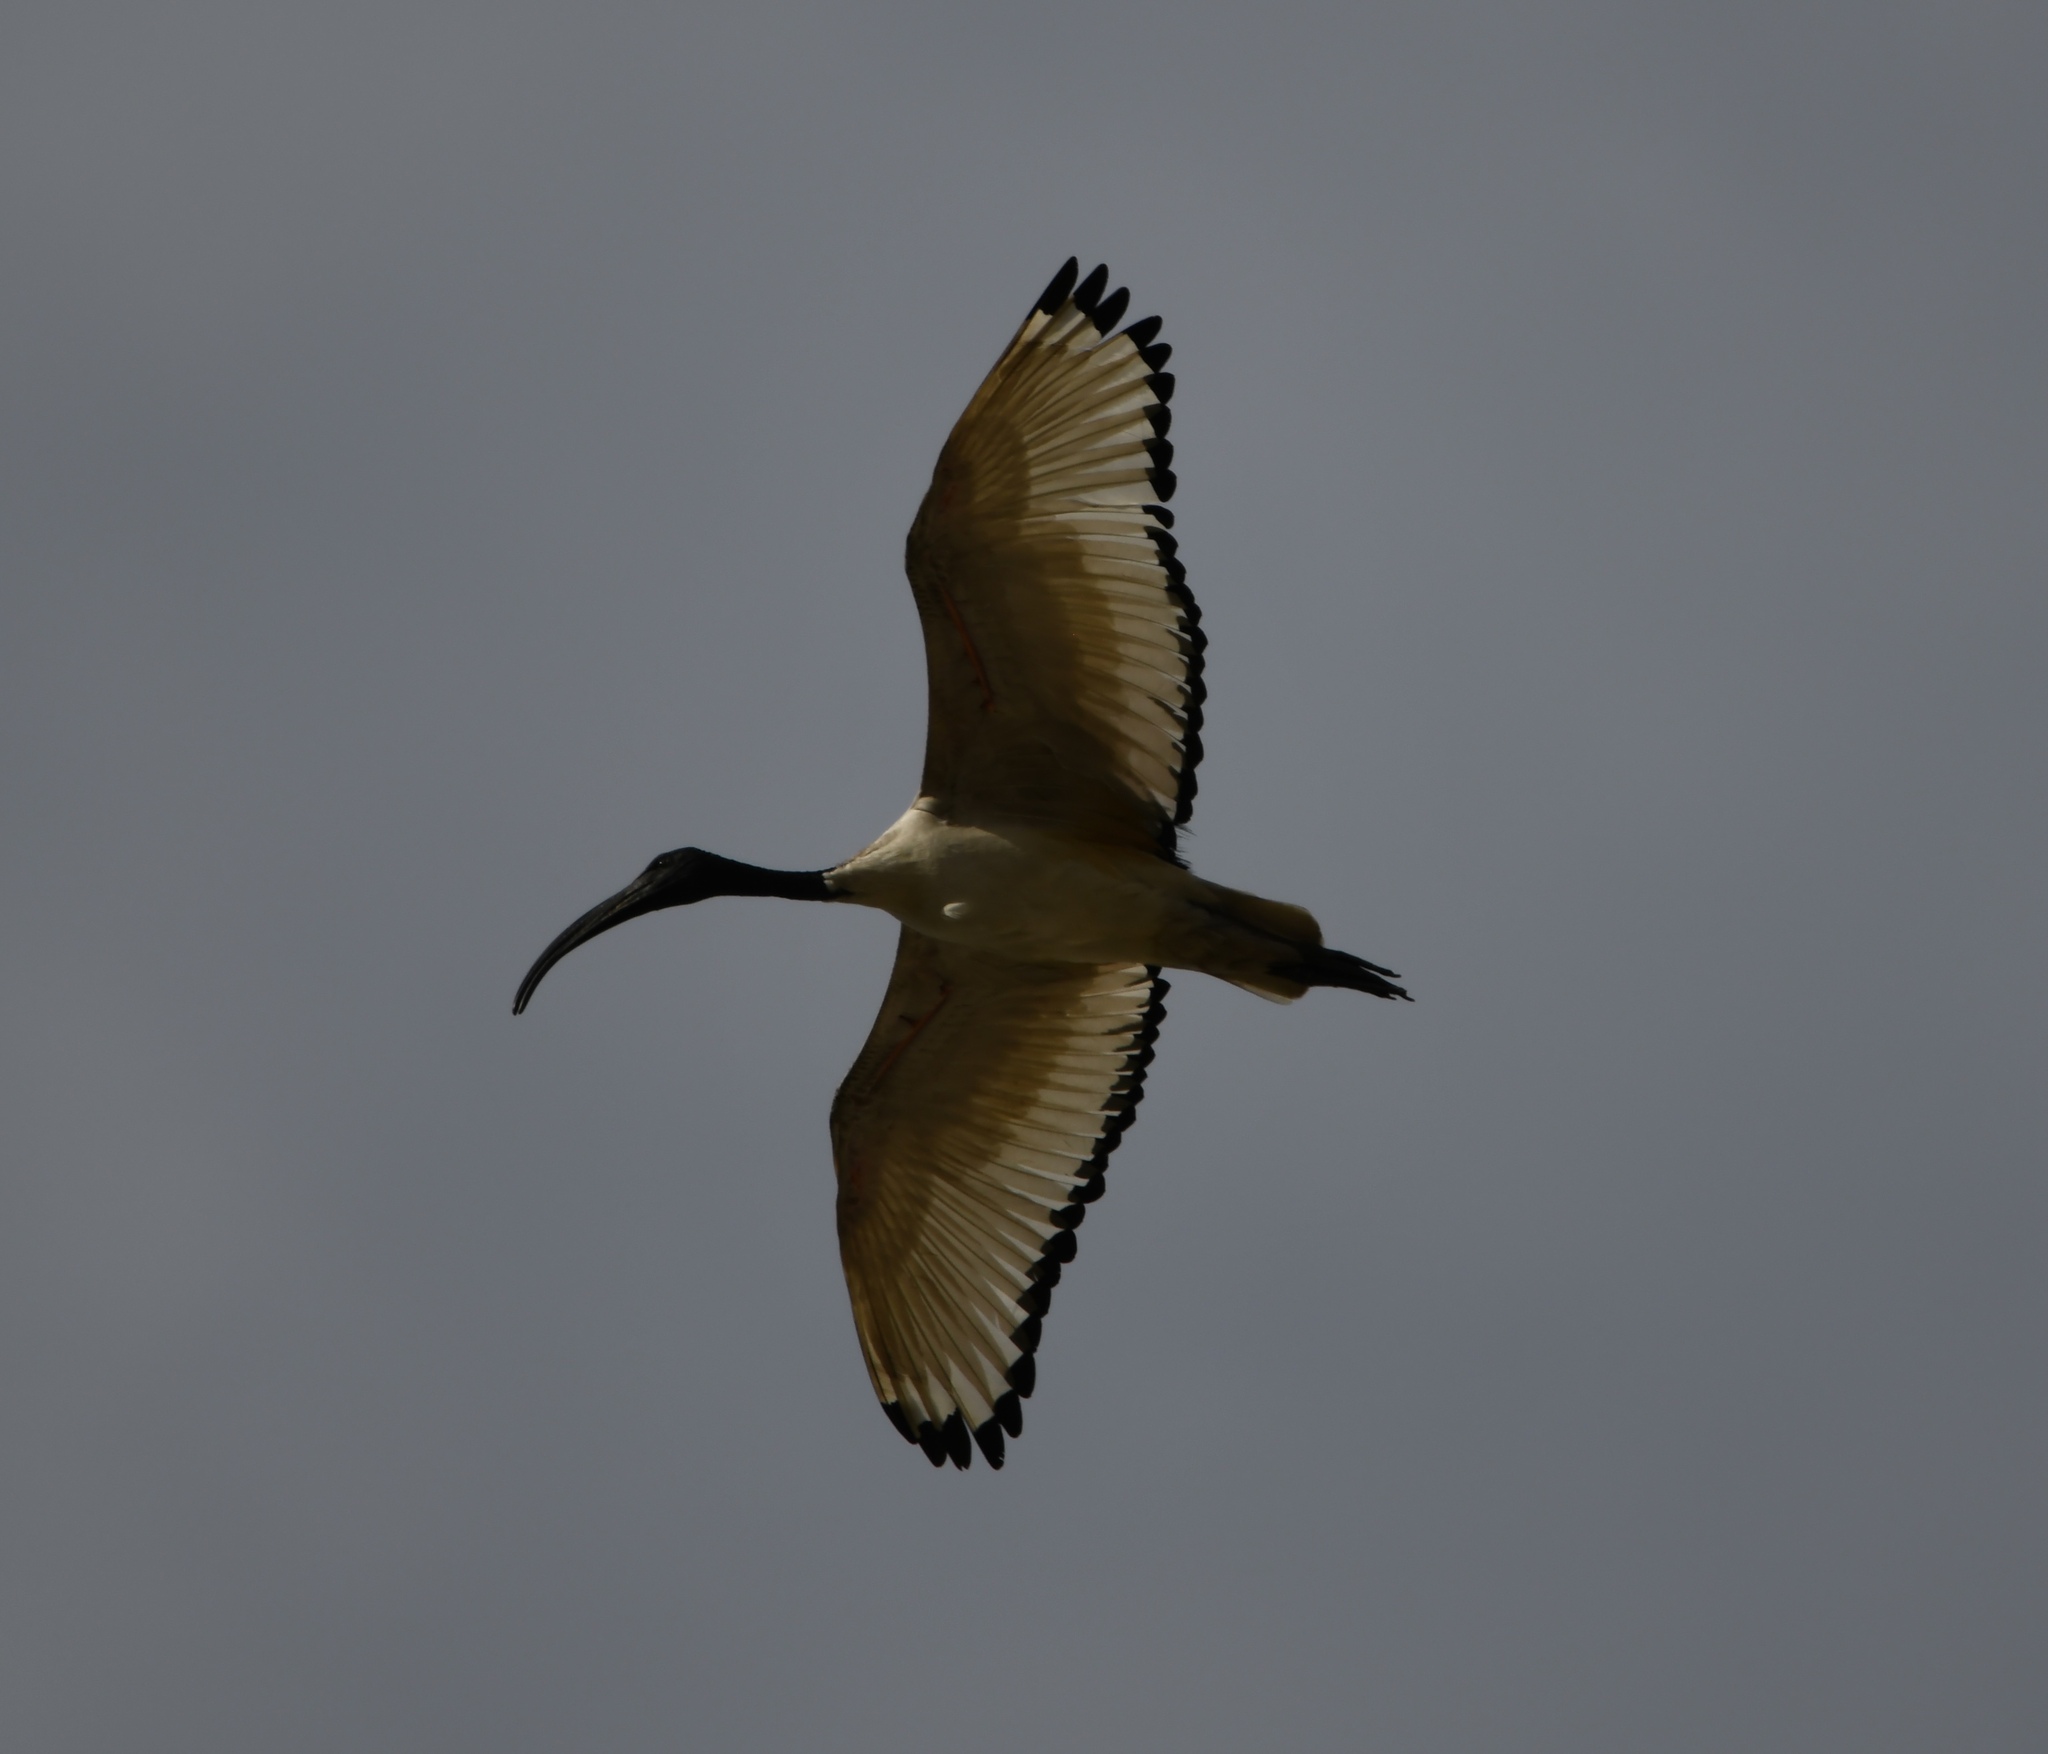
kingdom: Animalia
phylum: Chordata
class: Aves
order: Pelecaniformes
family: Threskiornithidae
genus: Threskiornis
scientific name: Threskiornis aethiopicus
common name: Sacred ibis
